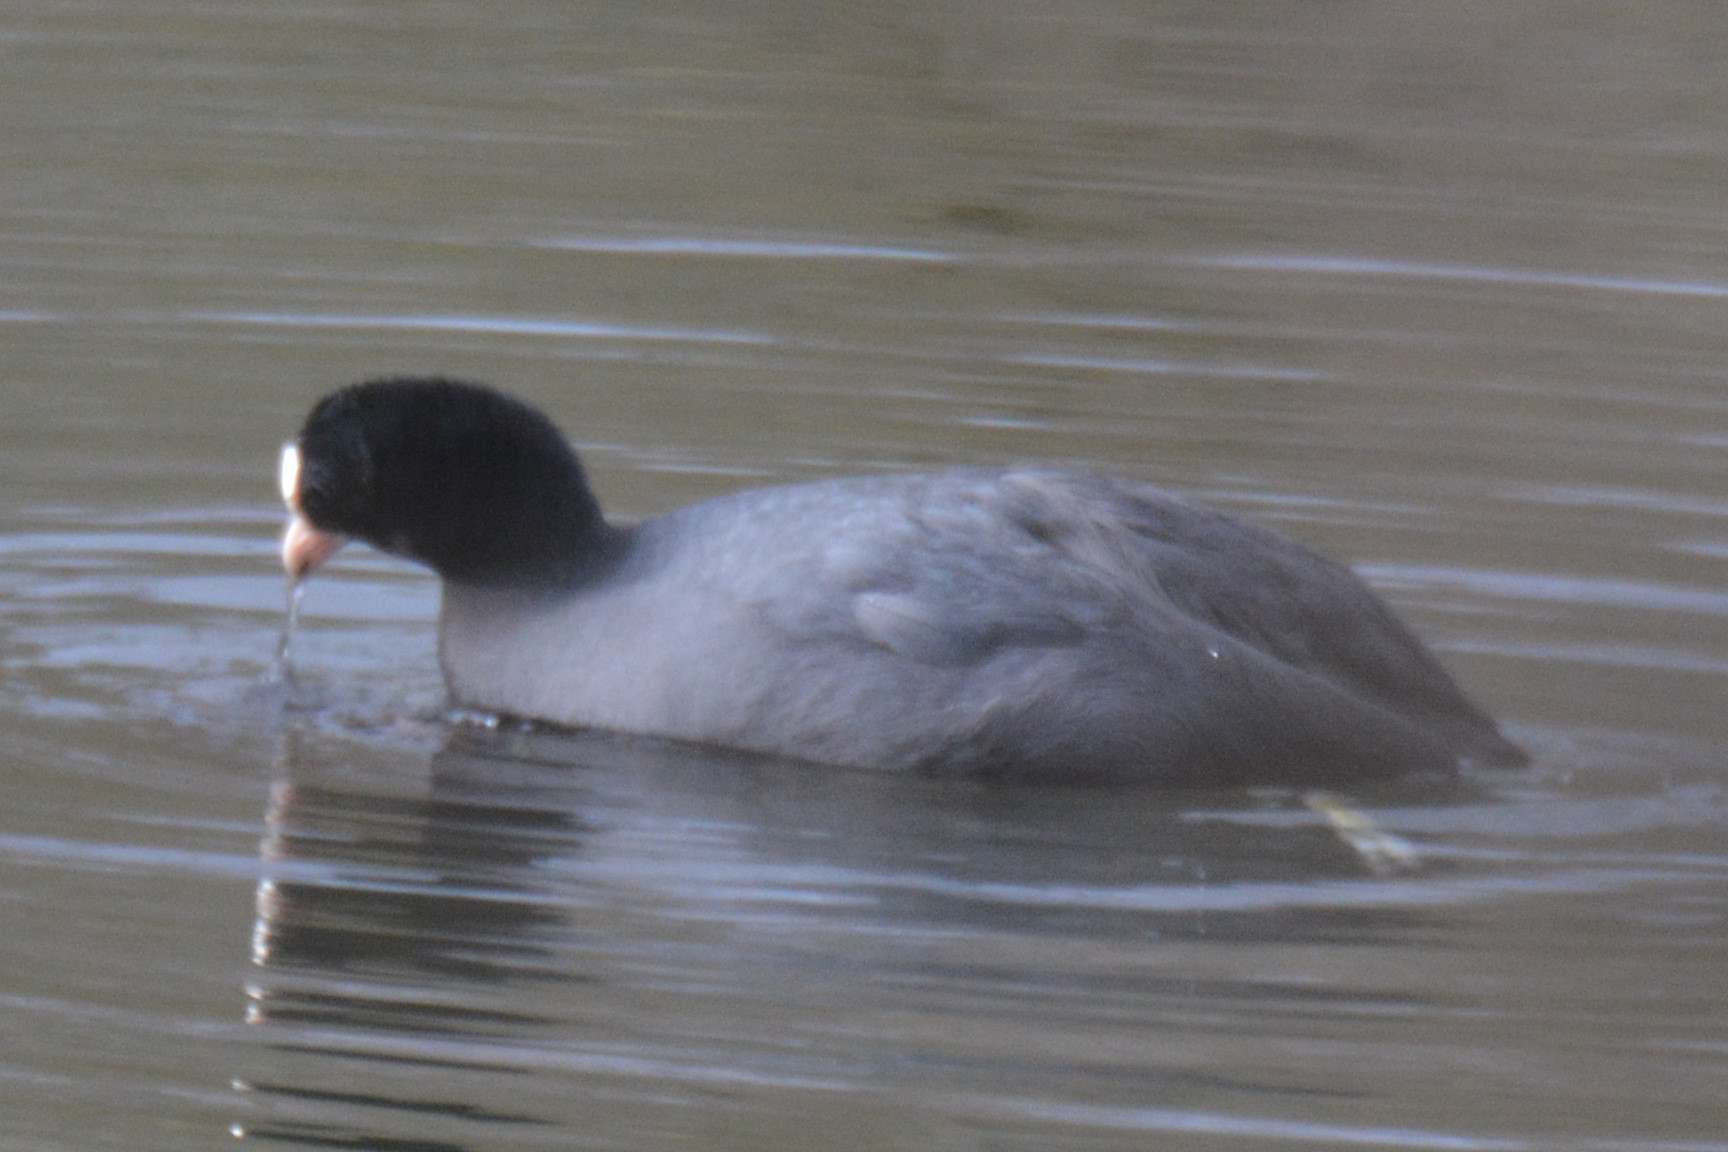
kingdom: Animalia
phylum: Chordata
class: Aves
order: Gruiformes
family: Rallidae
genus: Fulica
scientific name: Fulica atra
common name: Eurasian coot
